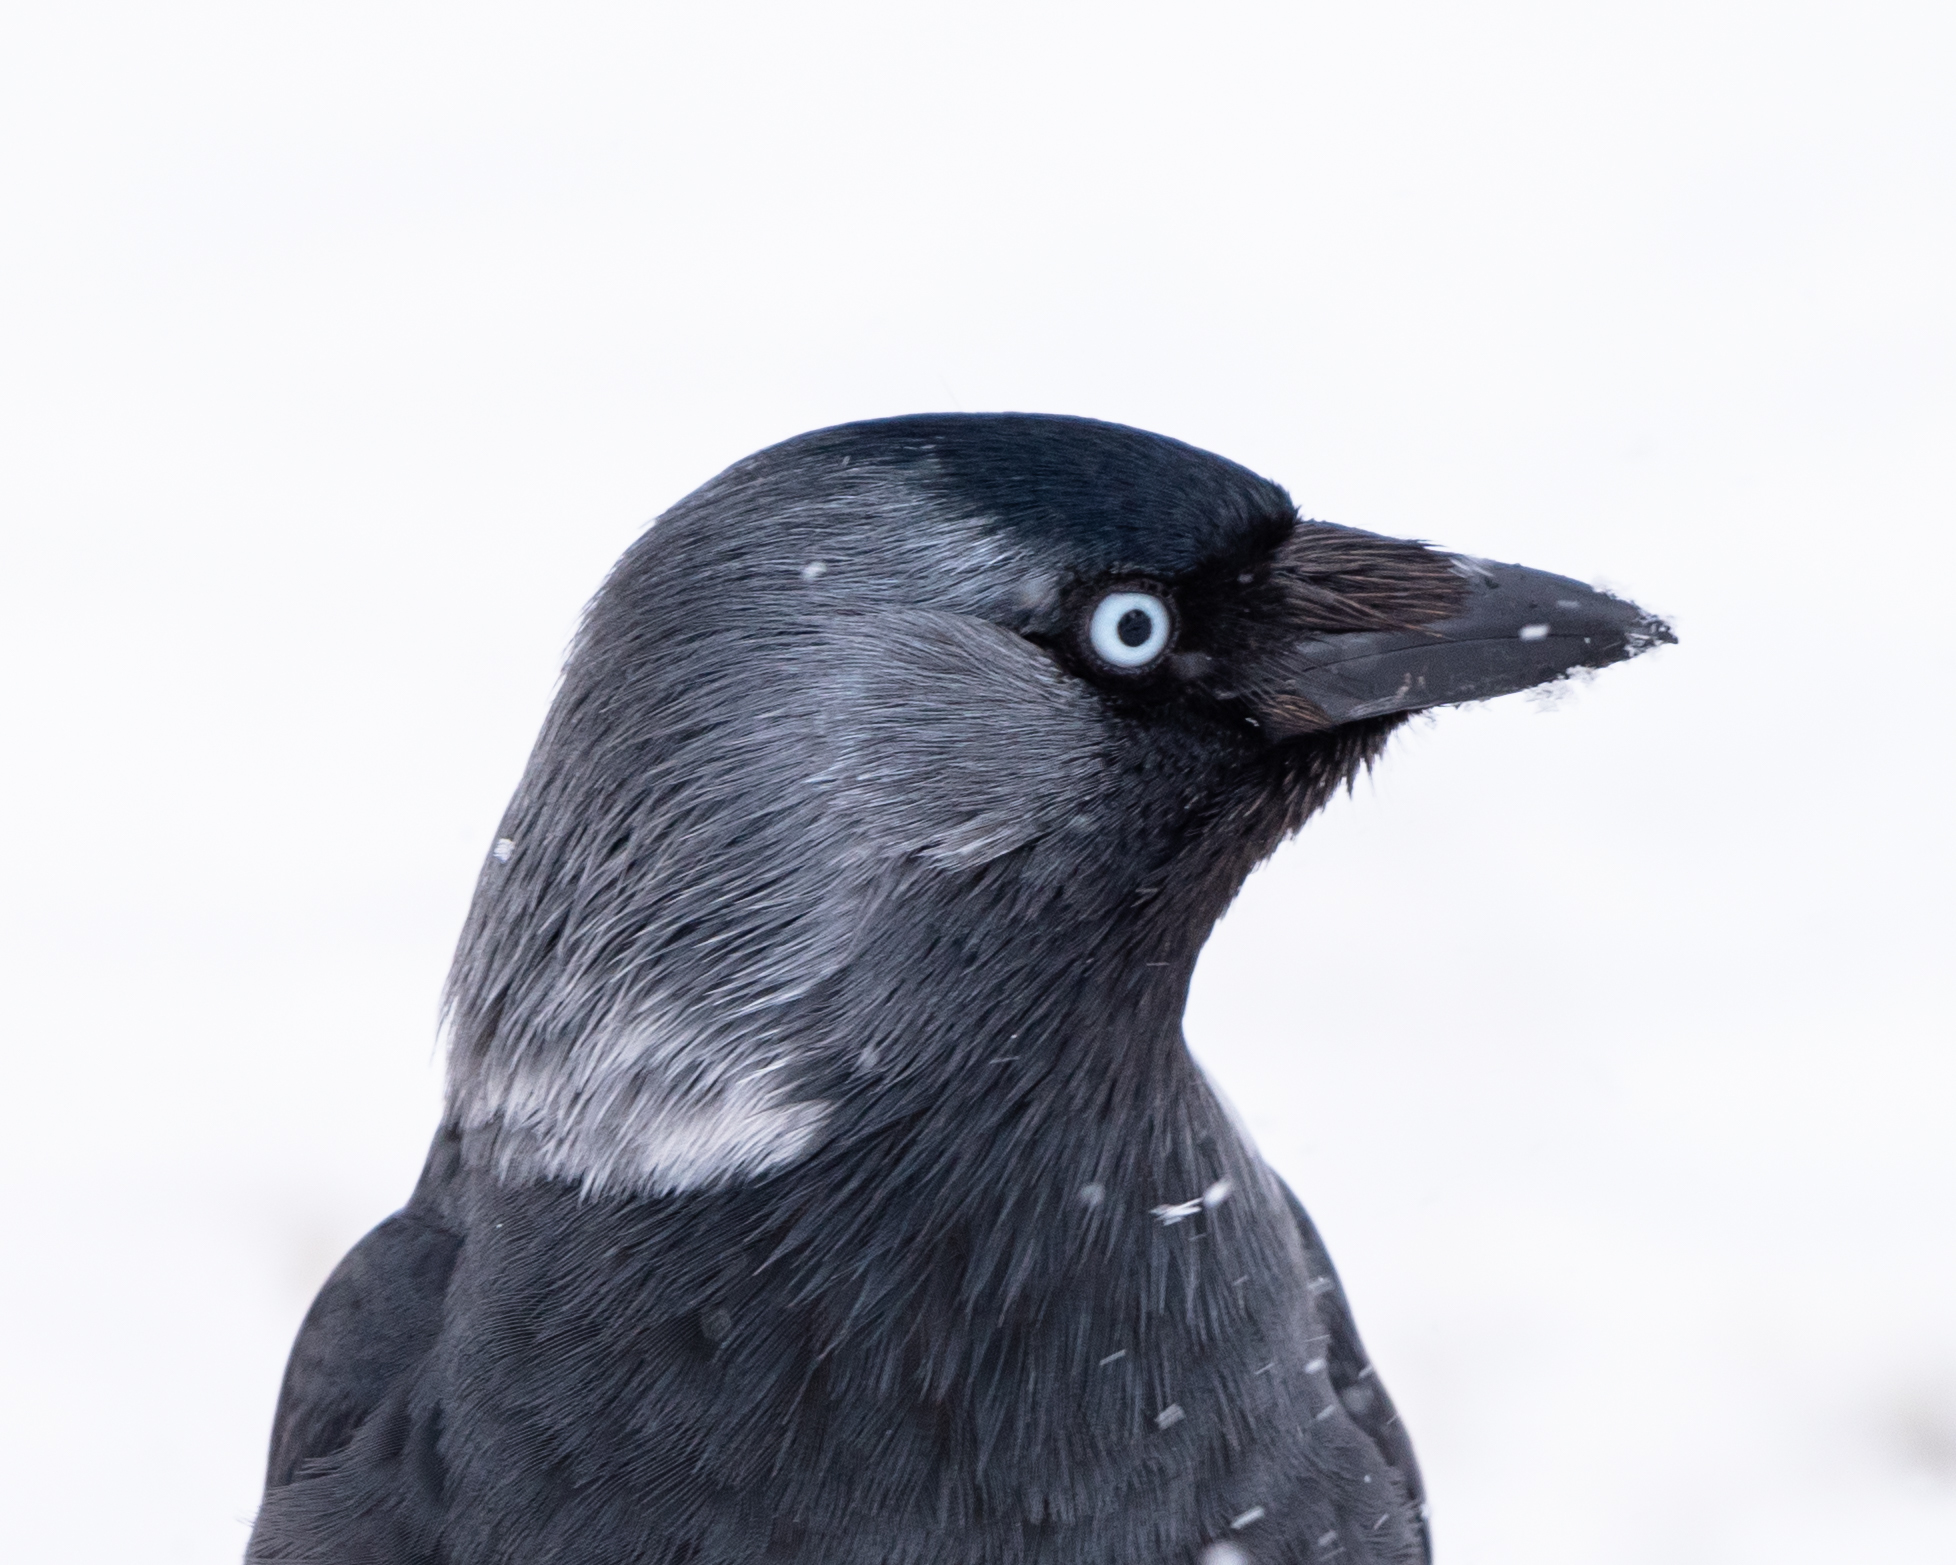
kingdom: Animalia
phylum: Chordata
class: Aves
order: Passeriformes
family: Corvidae
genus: Coloeus
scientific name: Coloeus monedula
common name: Western jackdaw
